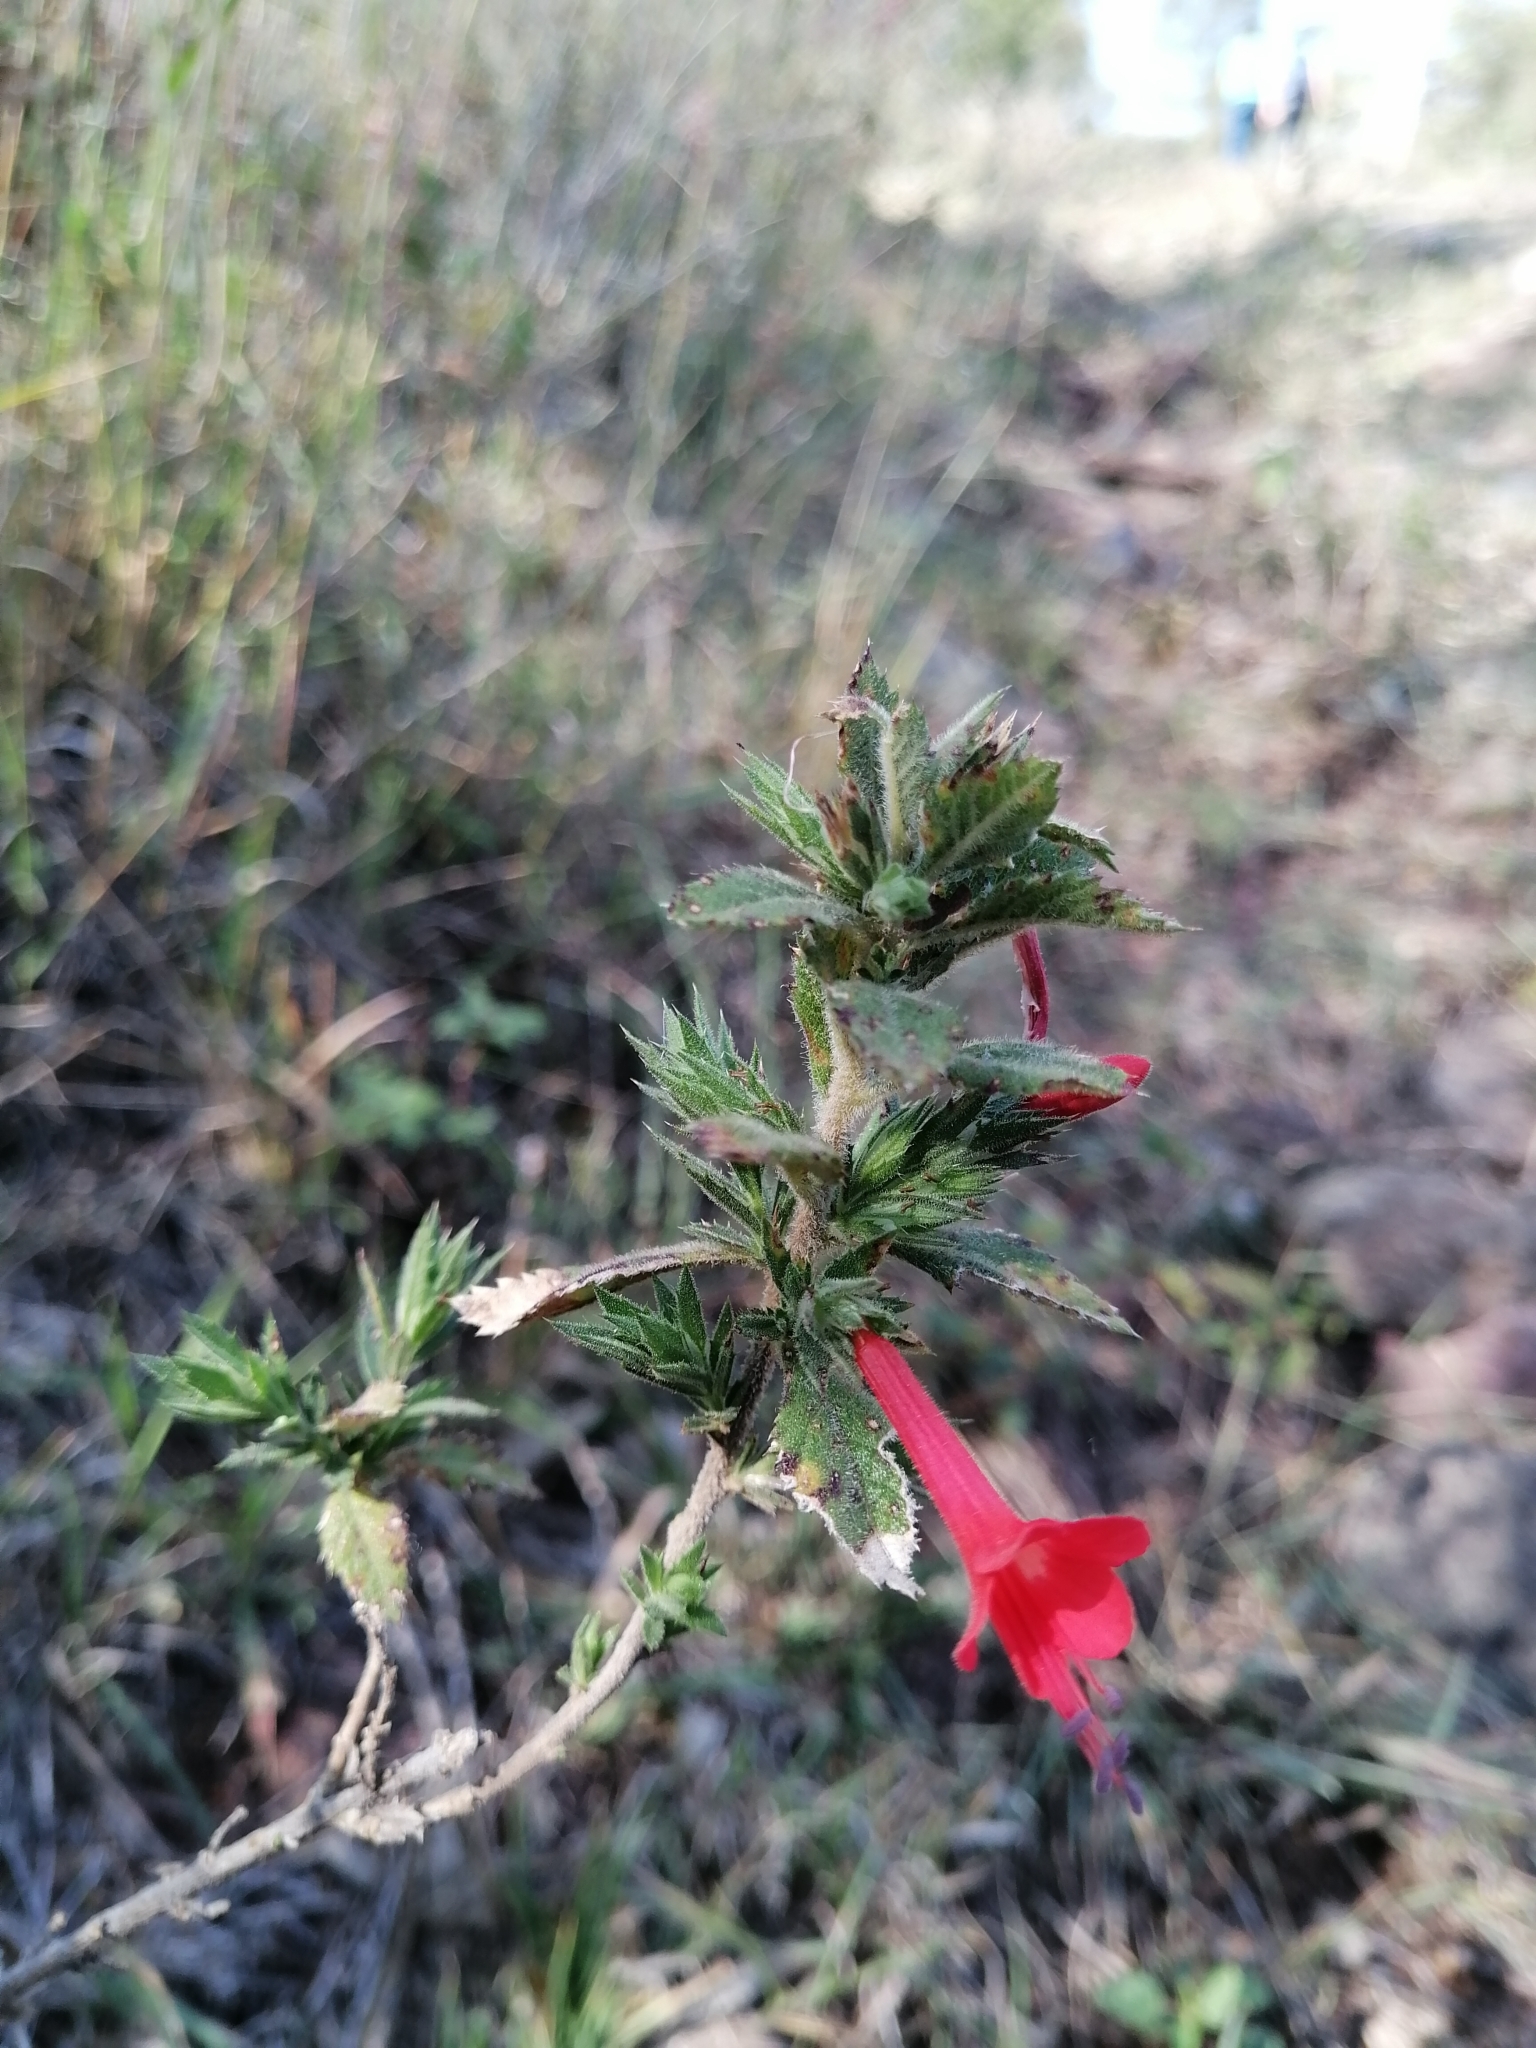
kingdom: Plantae
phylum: Tracheophyta
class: Magnoliopsida
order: Ericales
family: Polemoniaceae
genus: Loeselia
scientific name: Loeselia mexicana
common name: Mexican false calico
